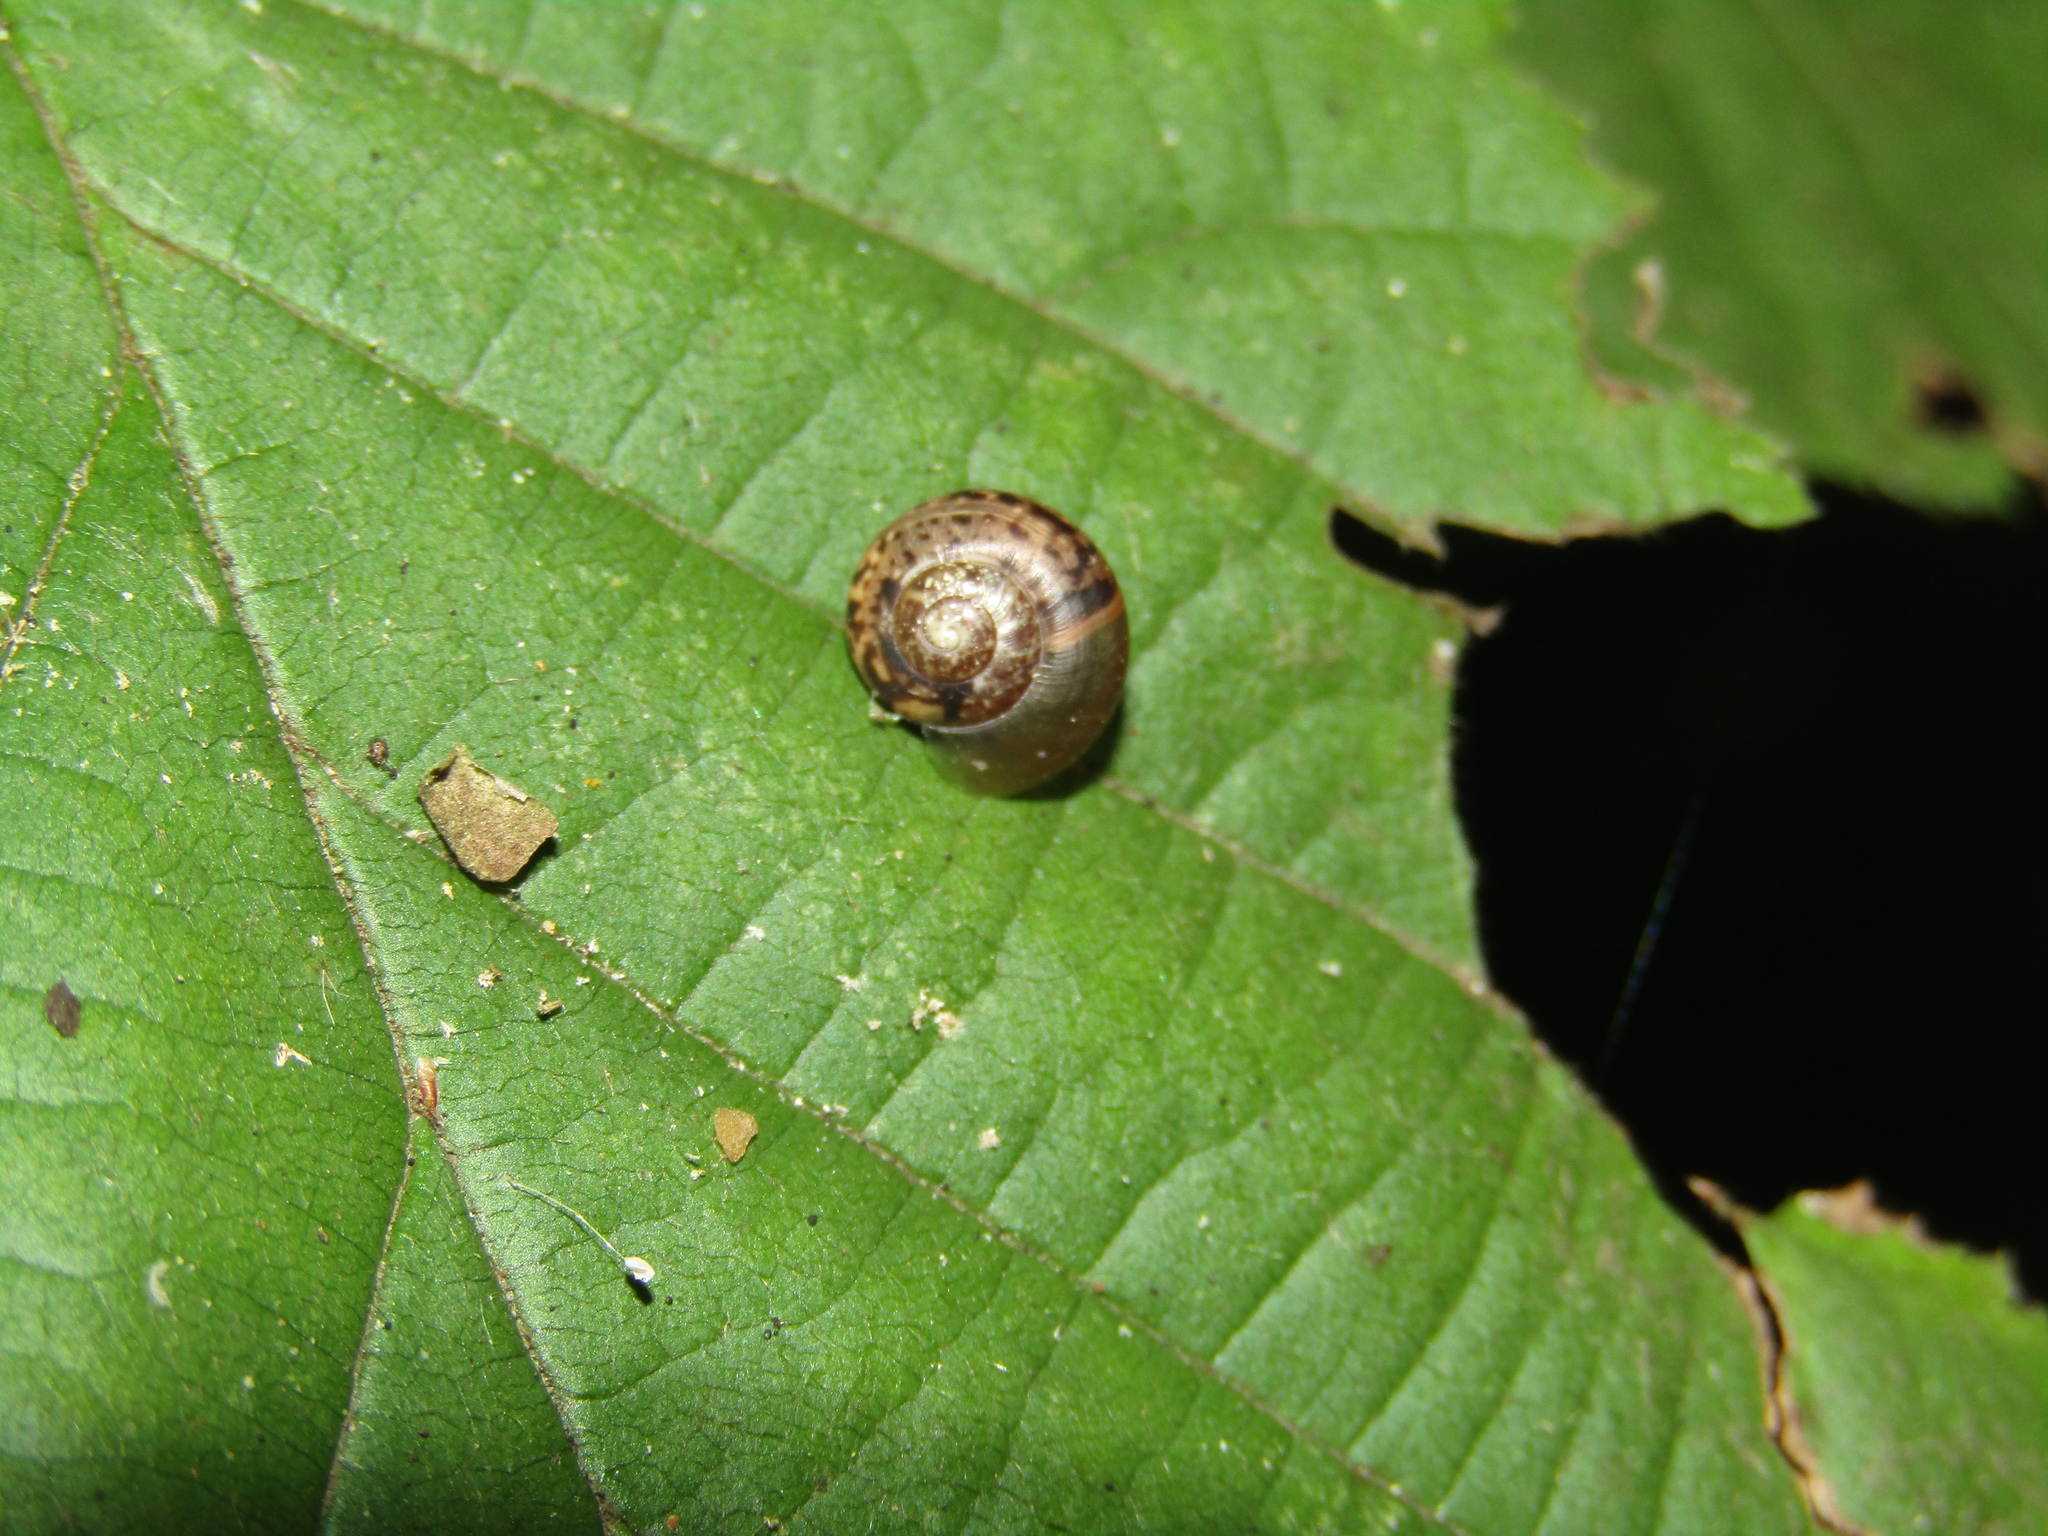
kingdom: Animalia
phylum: Mollusca
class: Gastropoda
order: Stylommatophora
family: Camaenidae
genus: Fruticicola
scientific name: Fruticicola fruticum
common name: Bush snail
